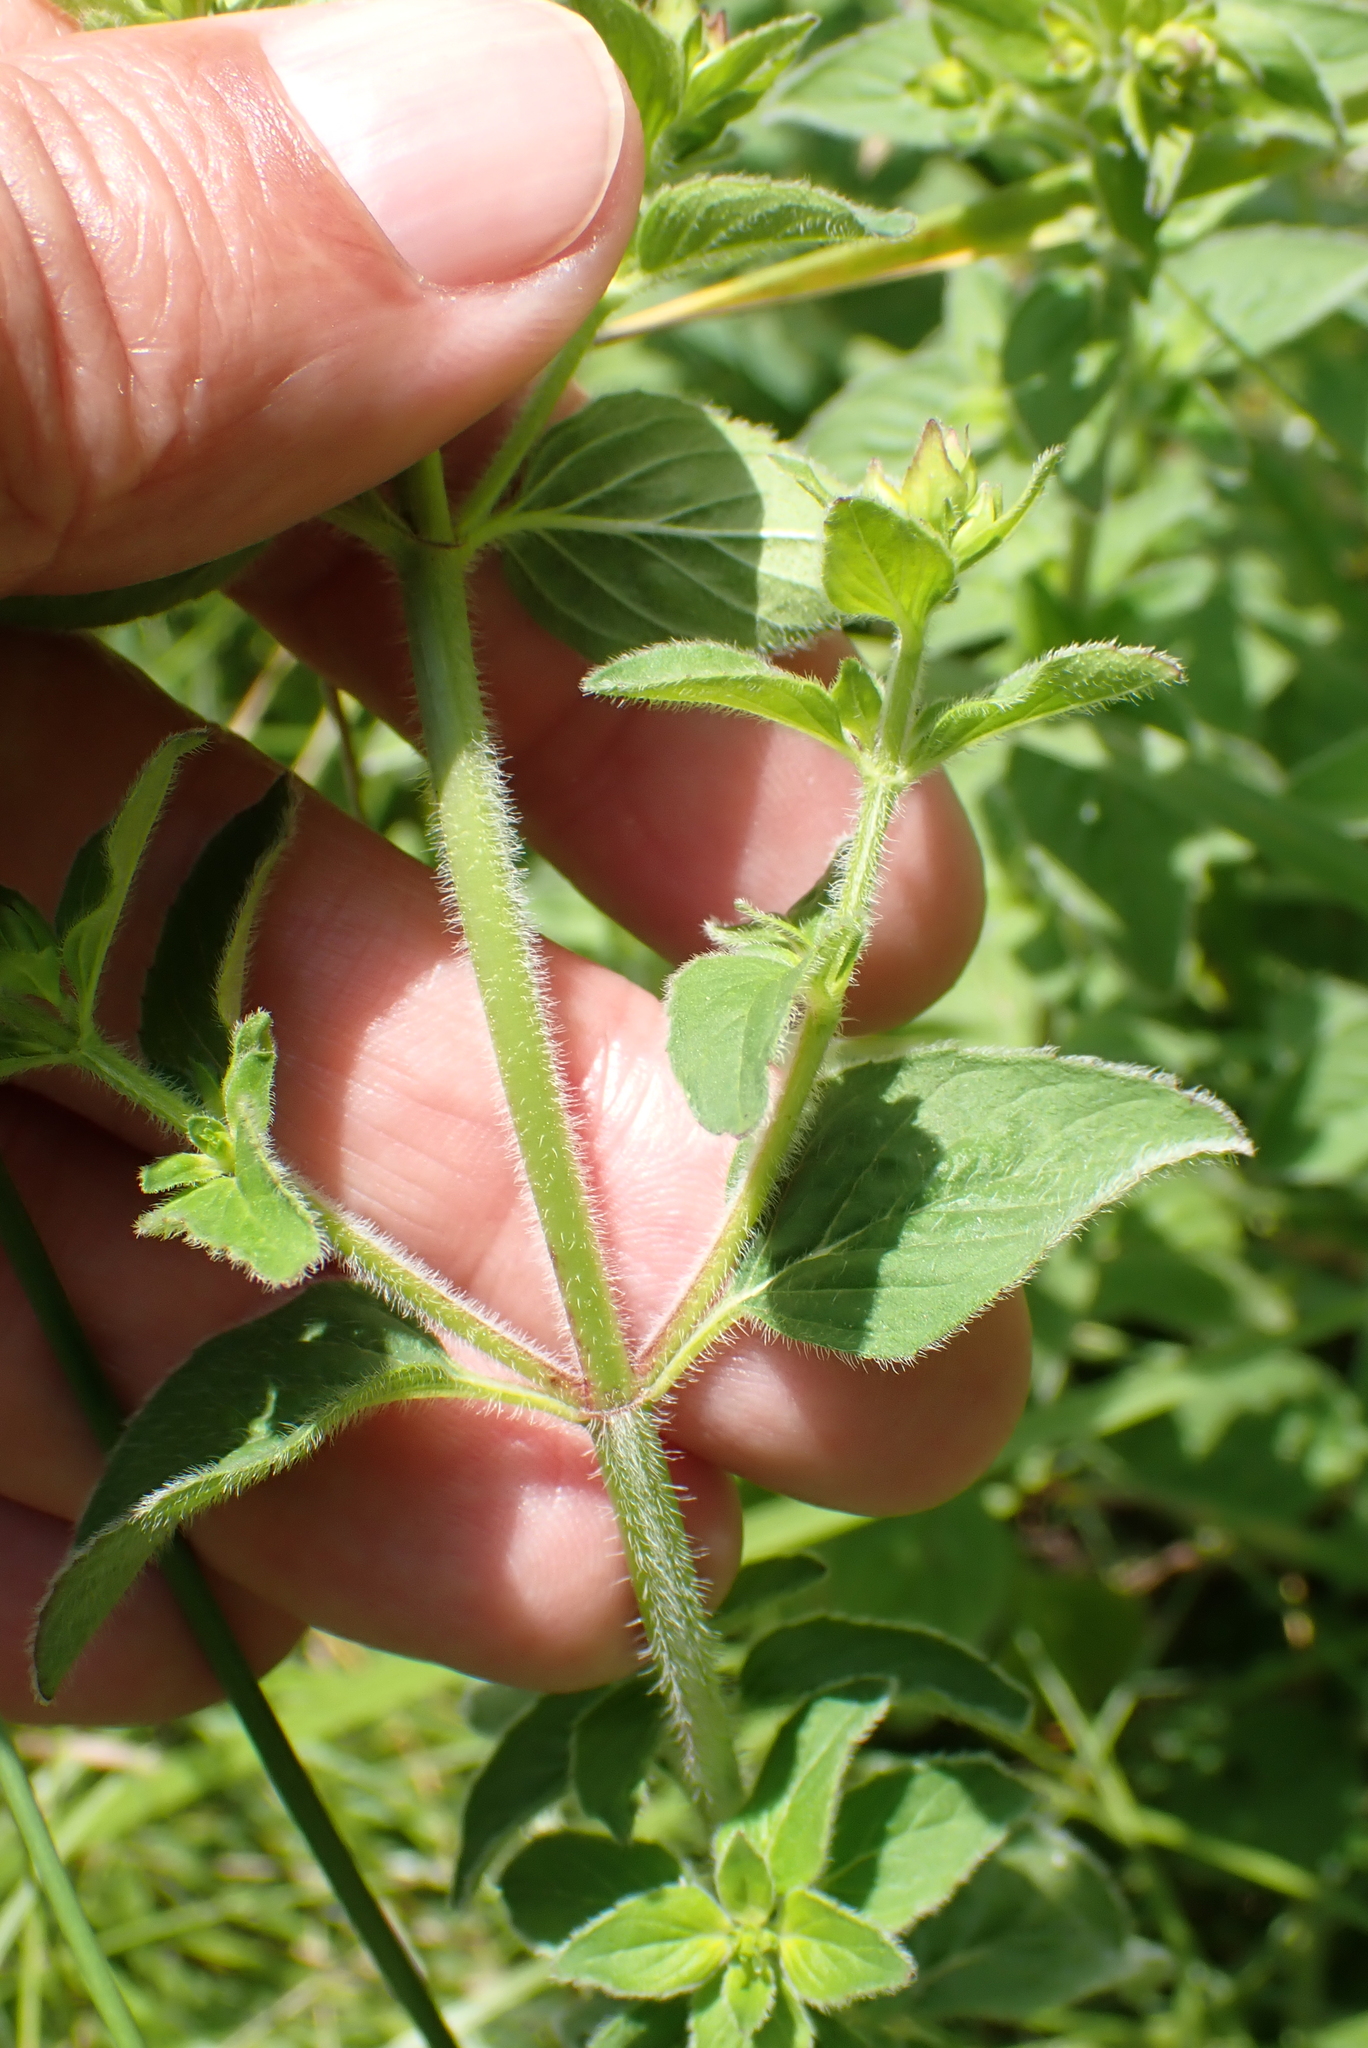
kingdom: Plantae
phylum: Tracheophyta
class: Magnoliopsida
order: Lamiales
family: Lamiaceae
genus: Origanum
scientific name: Origanum vulgare
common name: Wild marjoram
